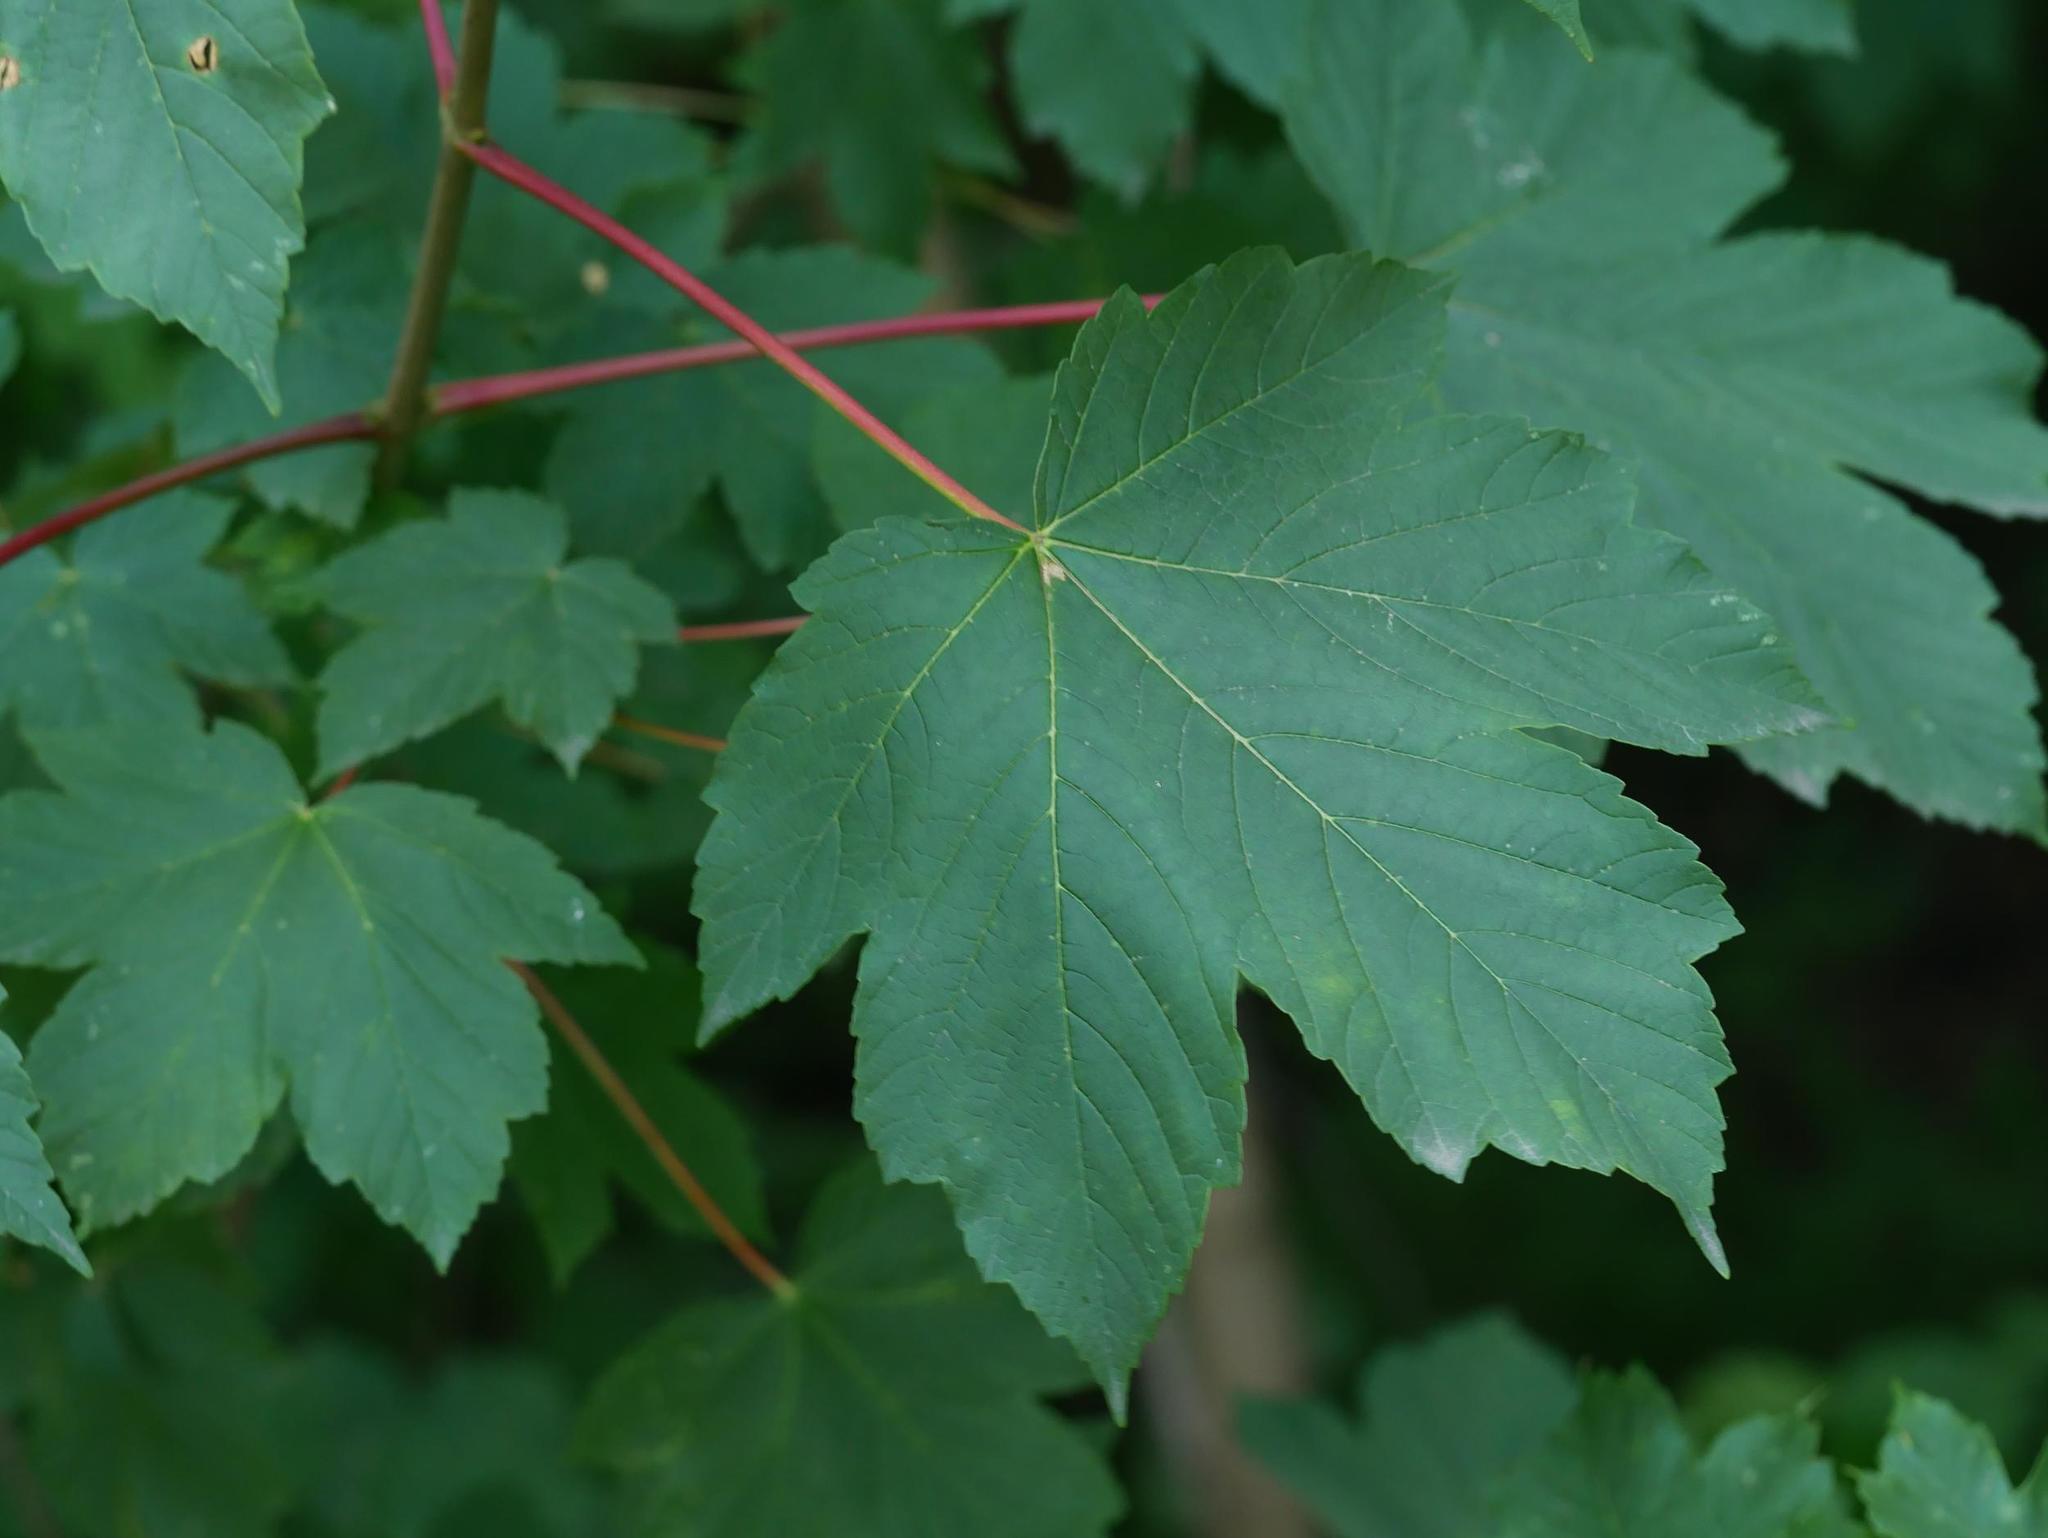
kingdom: Plantae
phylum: Tracheophyta
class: Magnoliopsida
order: Sapindales
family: Sapindaceae
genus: Acer
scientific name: Acer pseudoplatanus
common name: Sycamore
